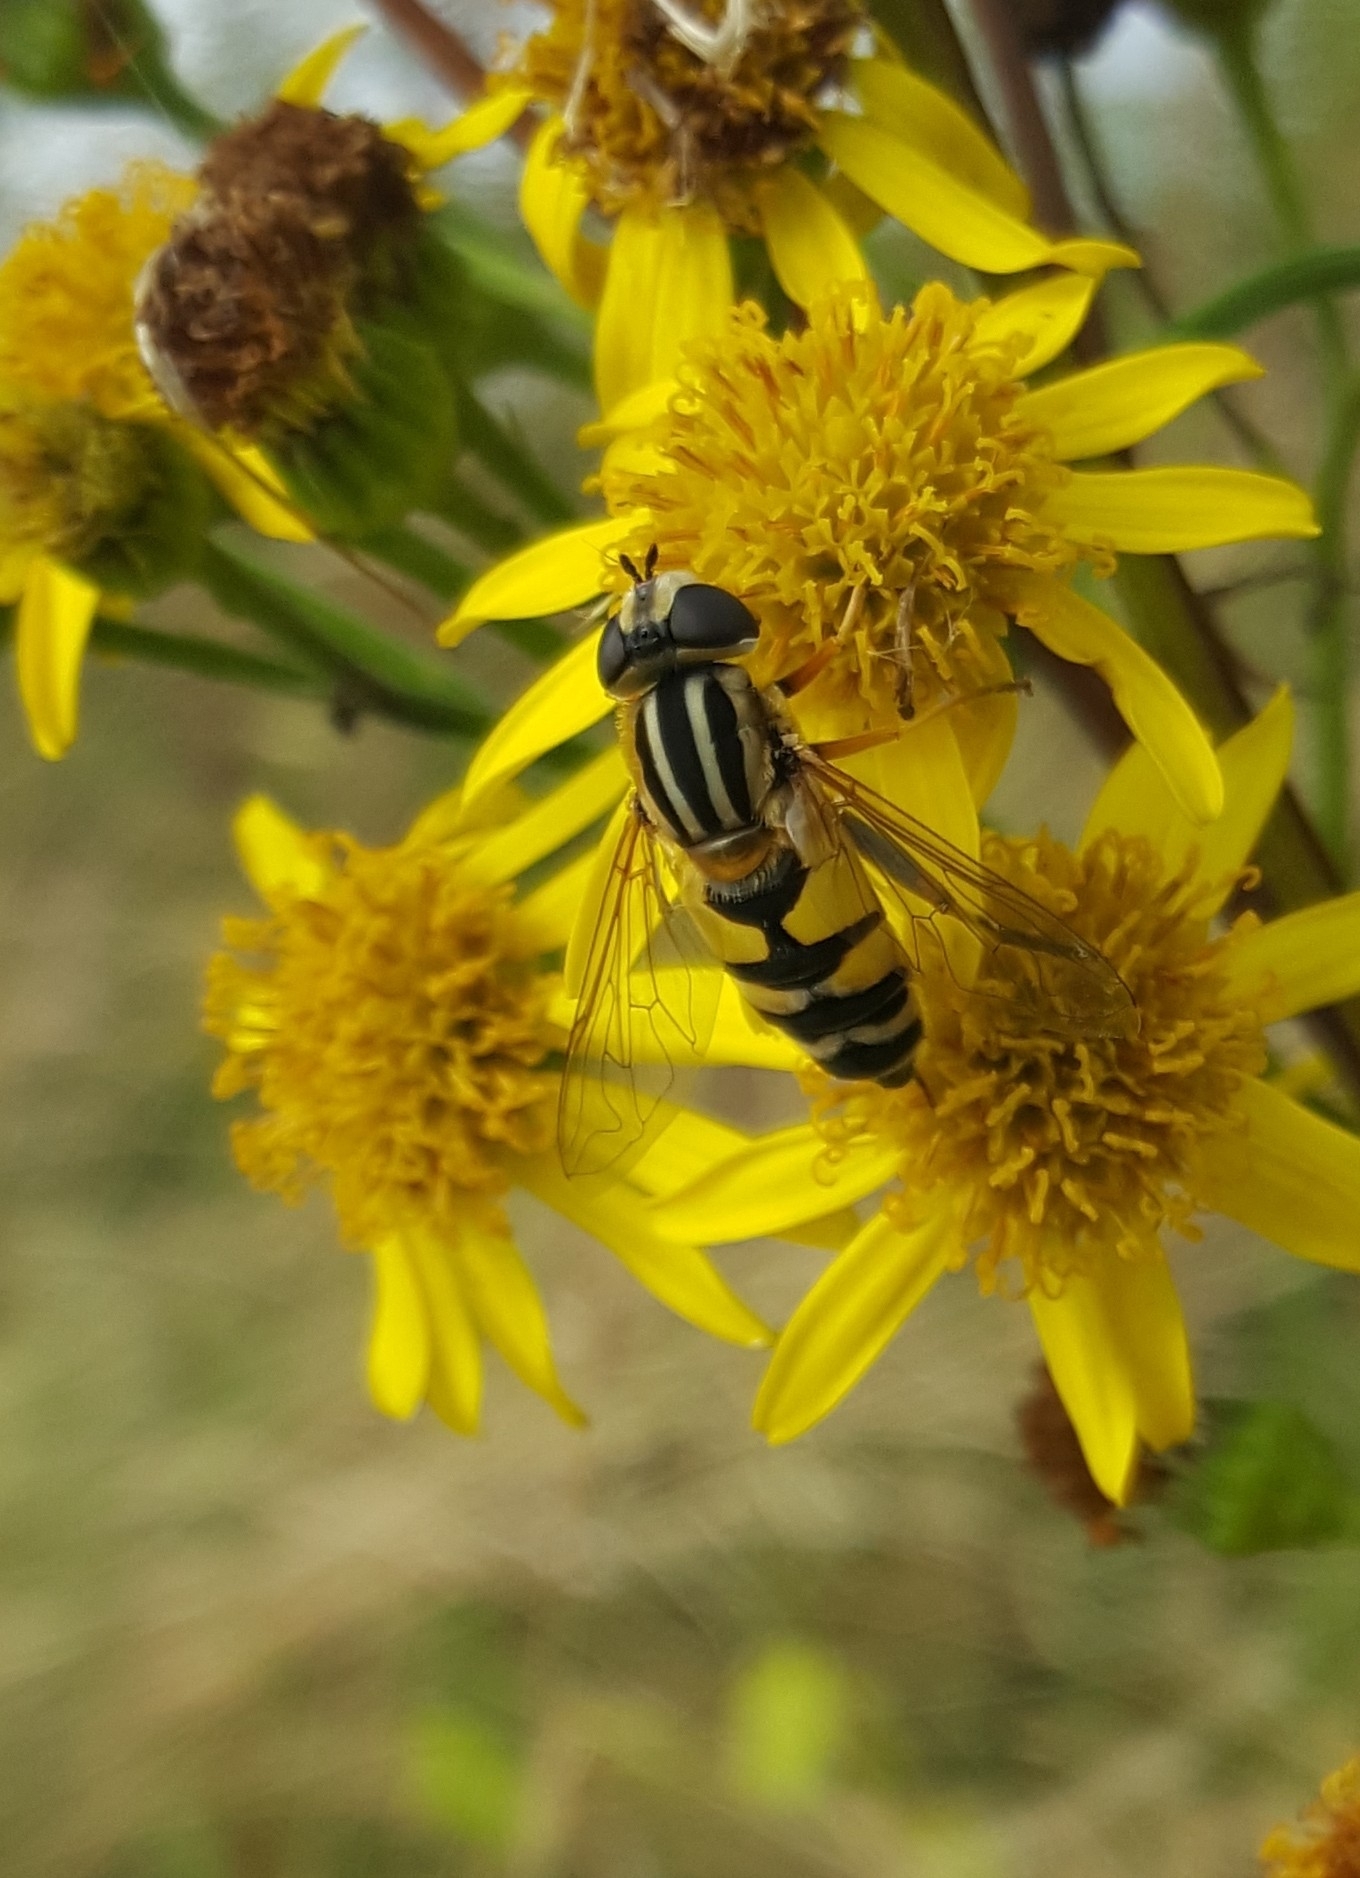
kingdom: Animalia
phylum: Arthropoda
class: Insecta
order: Diptera
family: Syrphidae
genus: Helophilus
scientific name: Helophilus trivittatus
